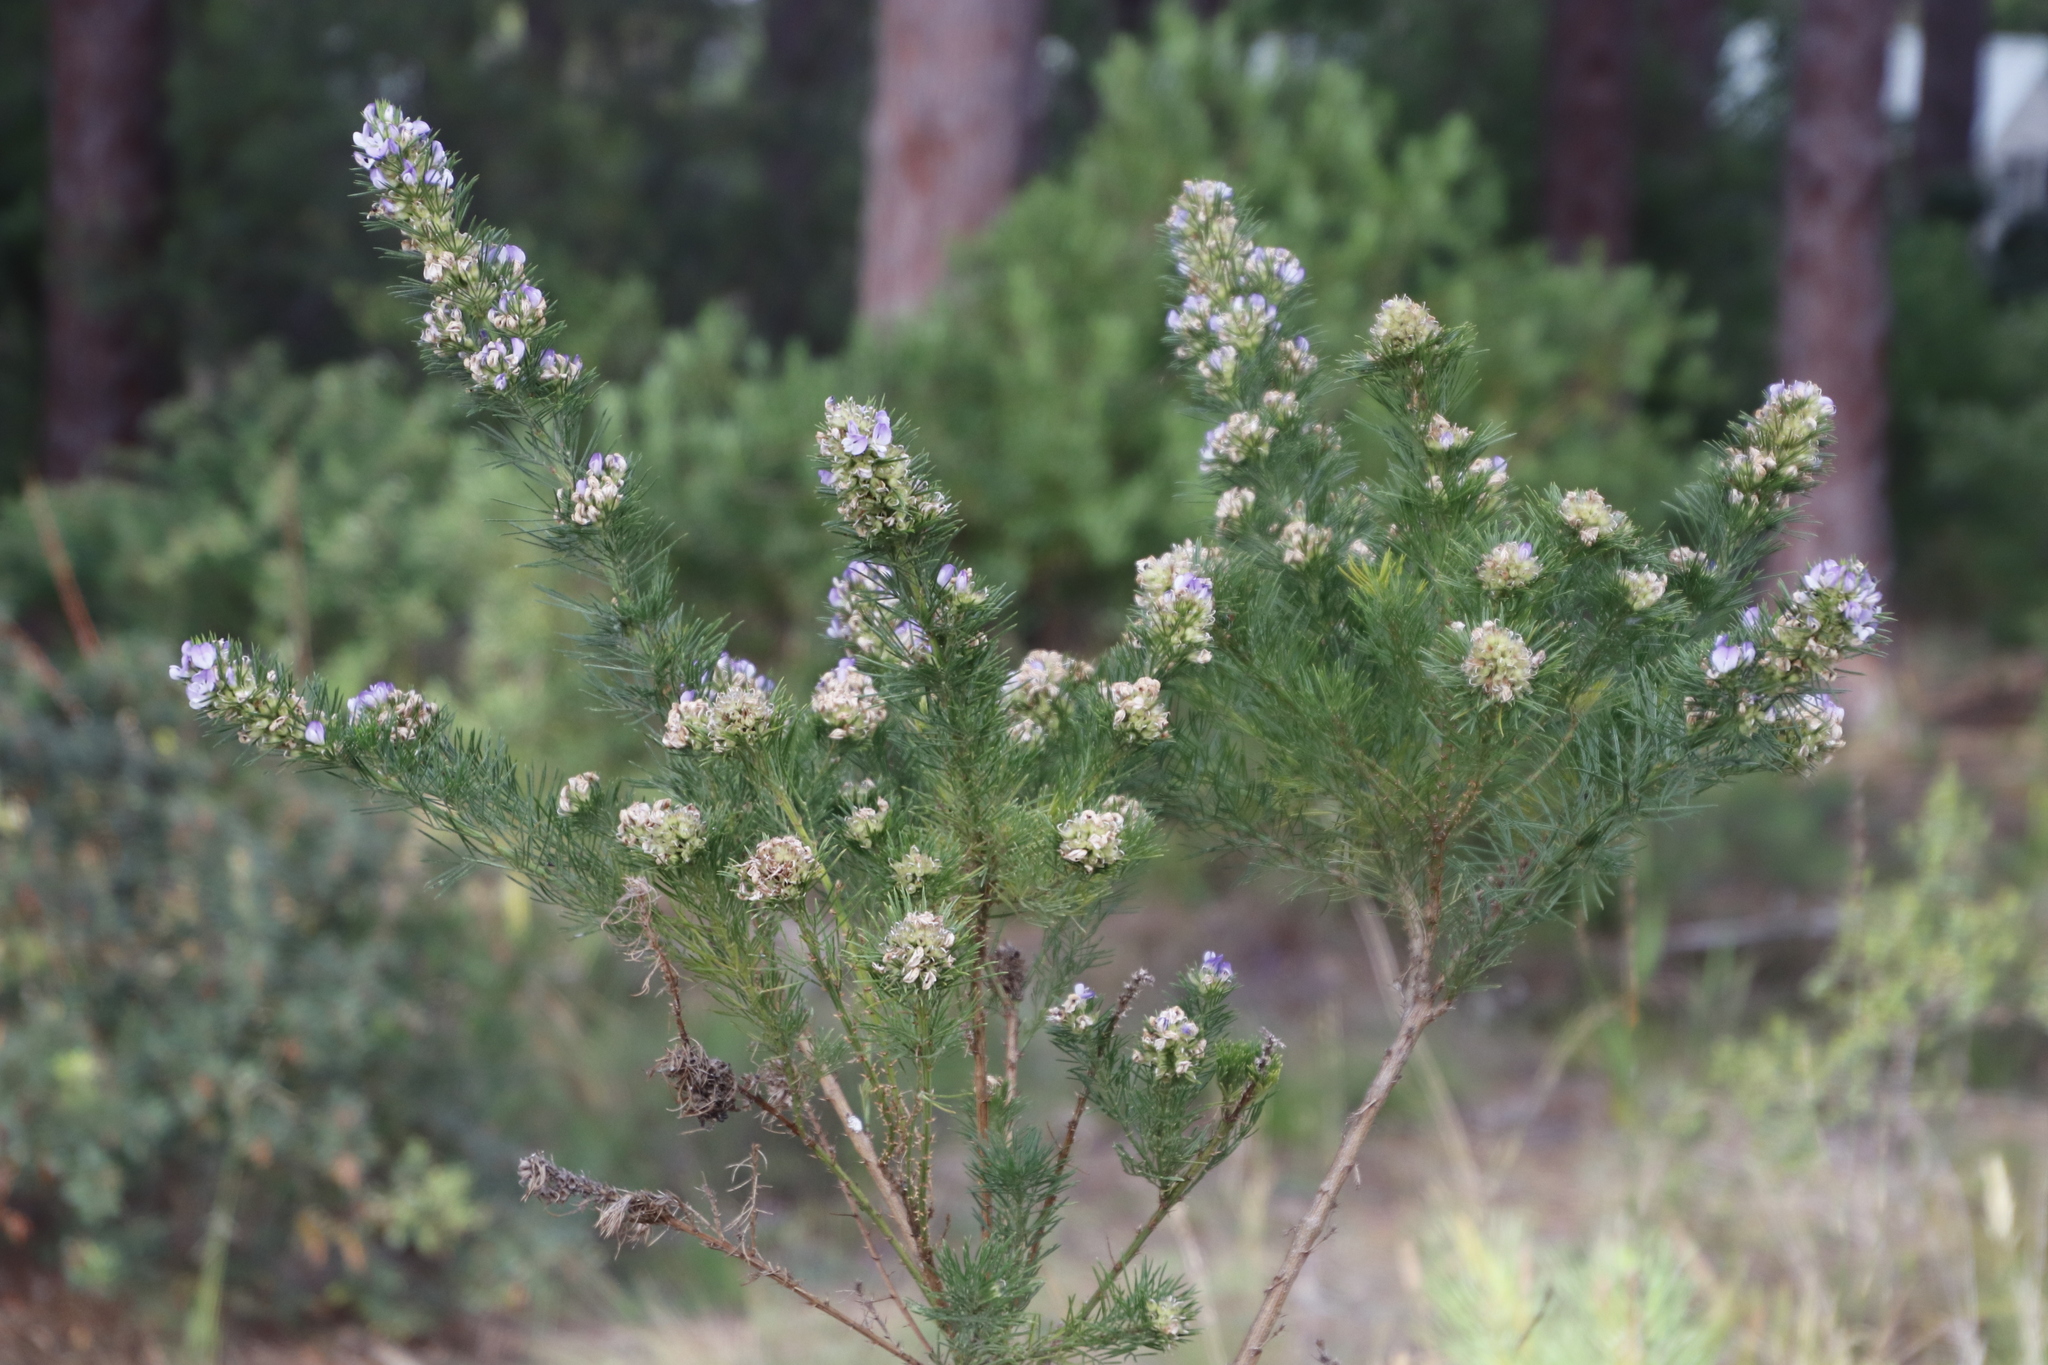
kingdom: Plantae
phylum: Tracheophyta
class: Magnoliopsida
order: Fabales
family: Fabaceae
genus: Psoralea
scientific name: Psoralea pinnata
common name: African scurfpea
